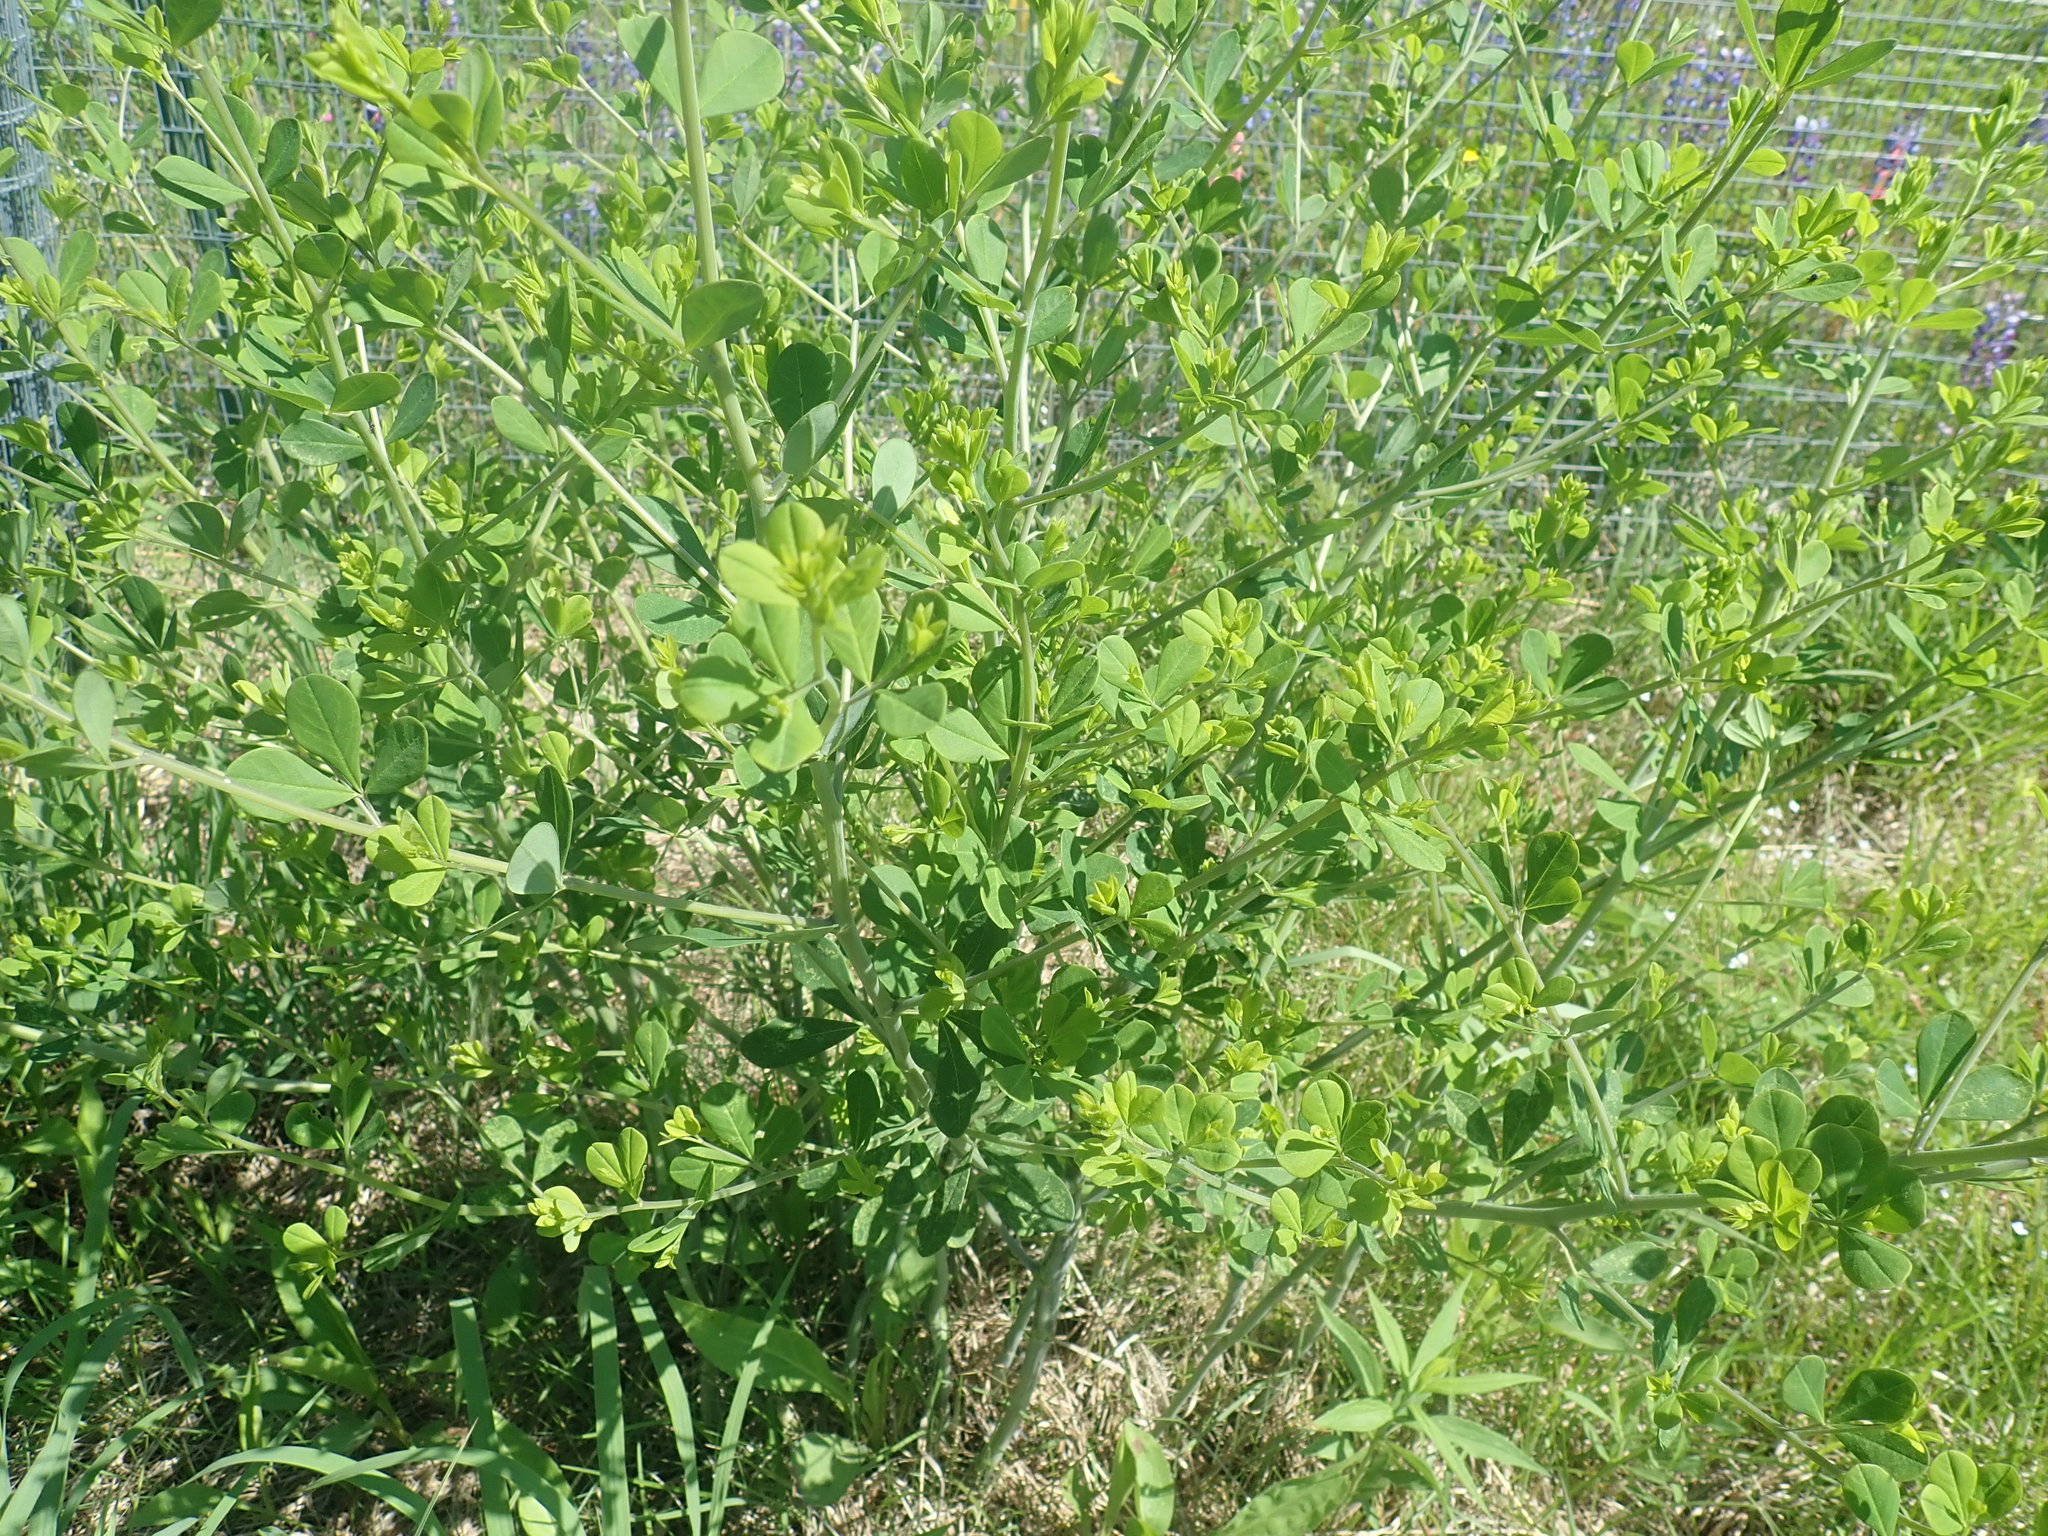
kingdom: Plantae
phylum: Tracheophyta
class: Magnoliopsida
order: Fabales
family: Fabaceae
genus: Baptisia
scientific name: Baptisia tinctoria
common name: Wild indigo
